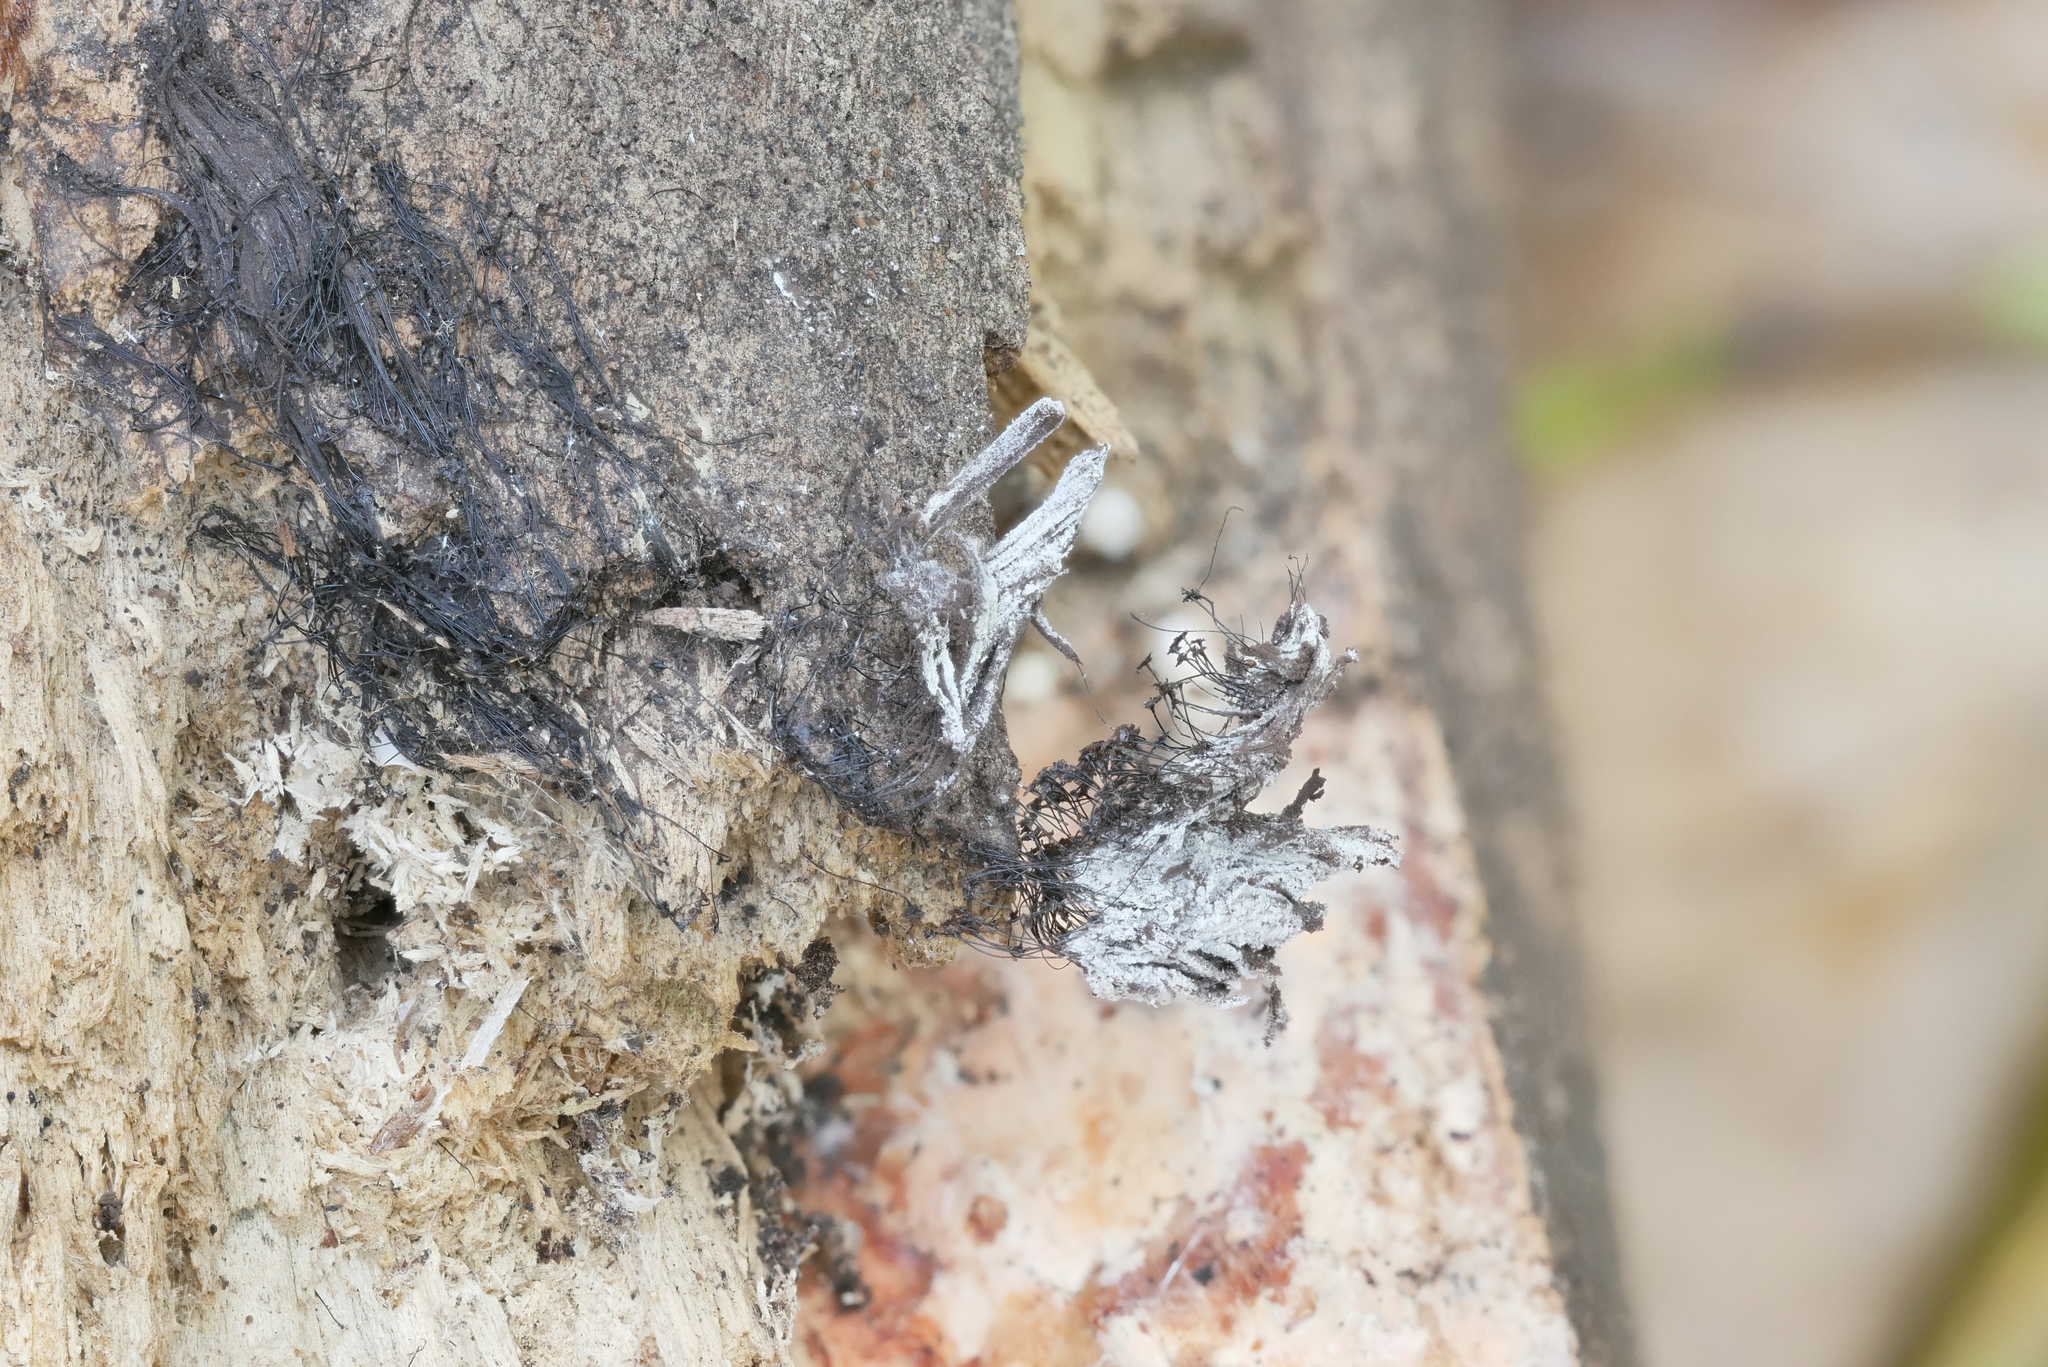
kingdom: Fungi
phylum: Ascomycota
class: Sordariomycetes
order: Hypocreales
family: Bionectriaceae
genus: Nectriopsis
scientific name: Nectriopsis rexiana
